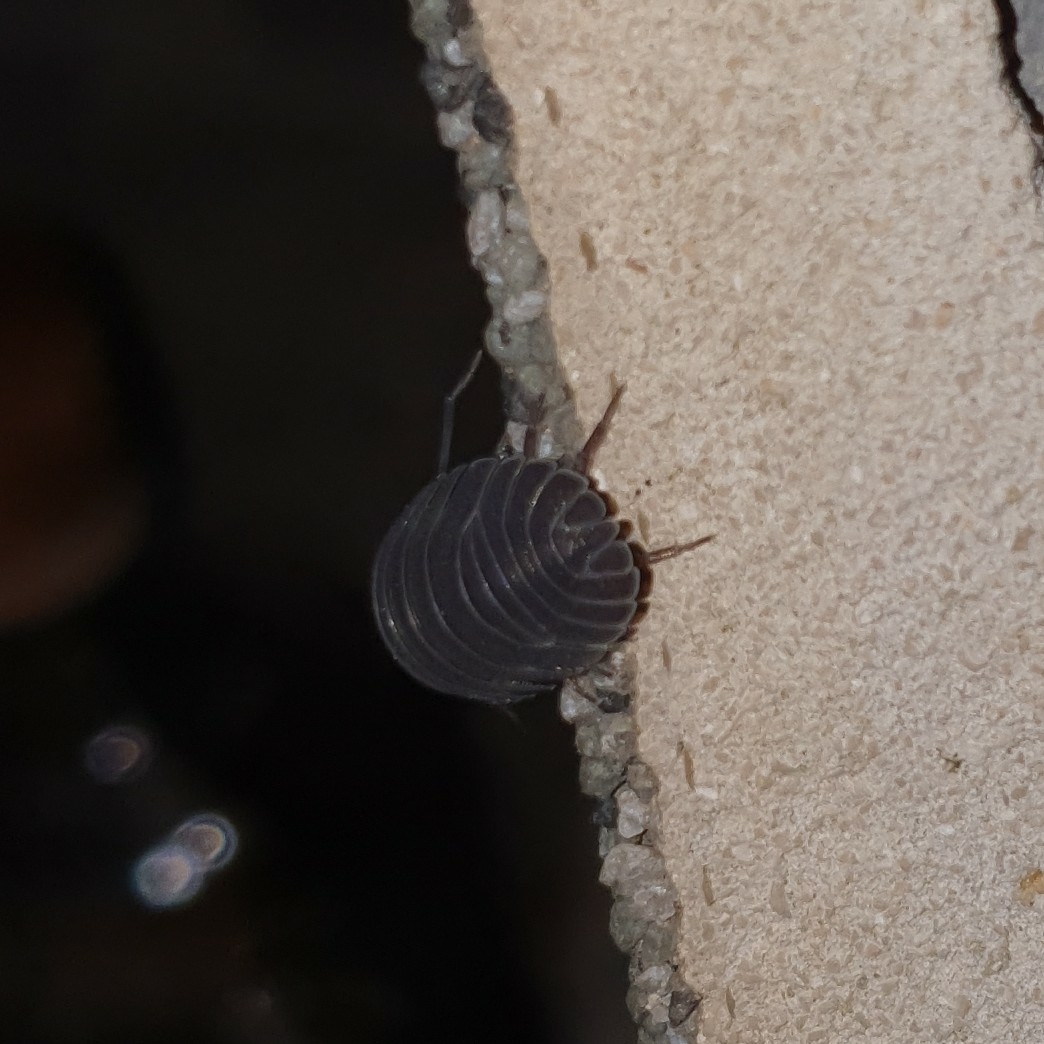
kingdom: Animalia
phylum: Arthropoda
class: Malacostraca
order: Isopoda
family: Armadillidiidae
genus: Armadillidium
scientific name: Armadillidium pallasii
